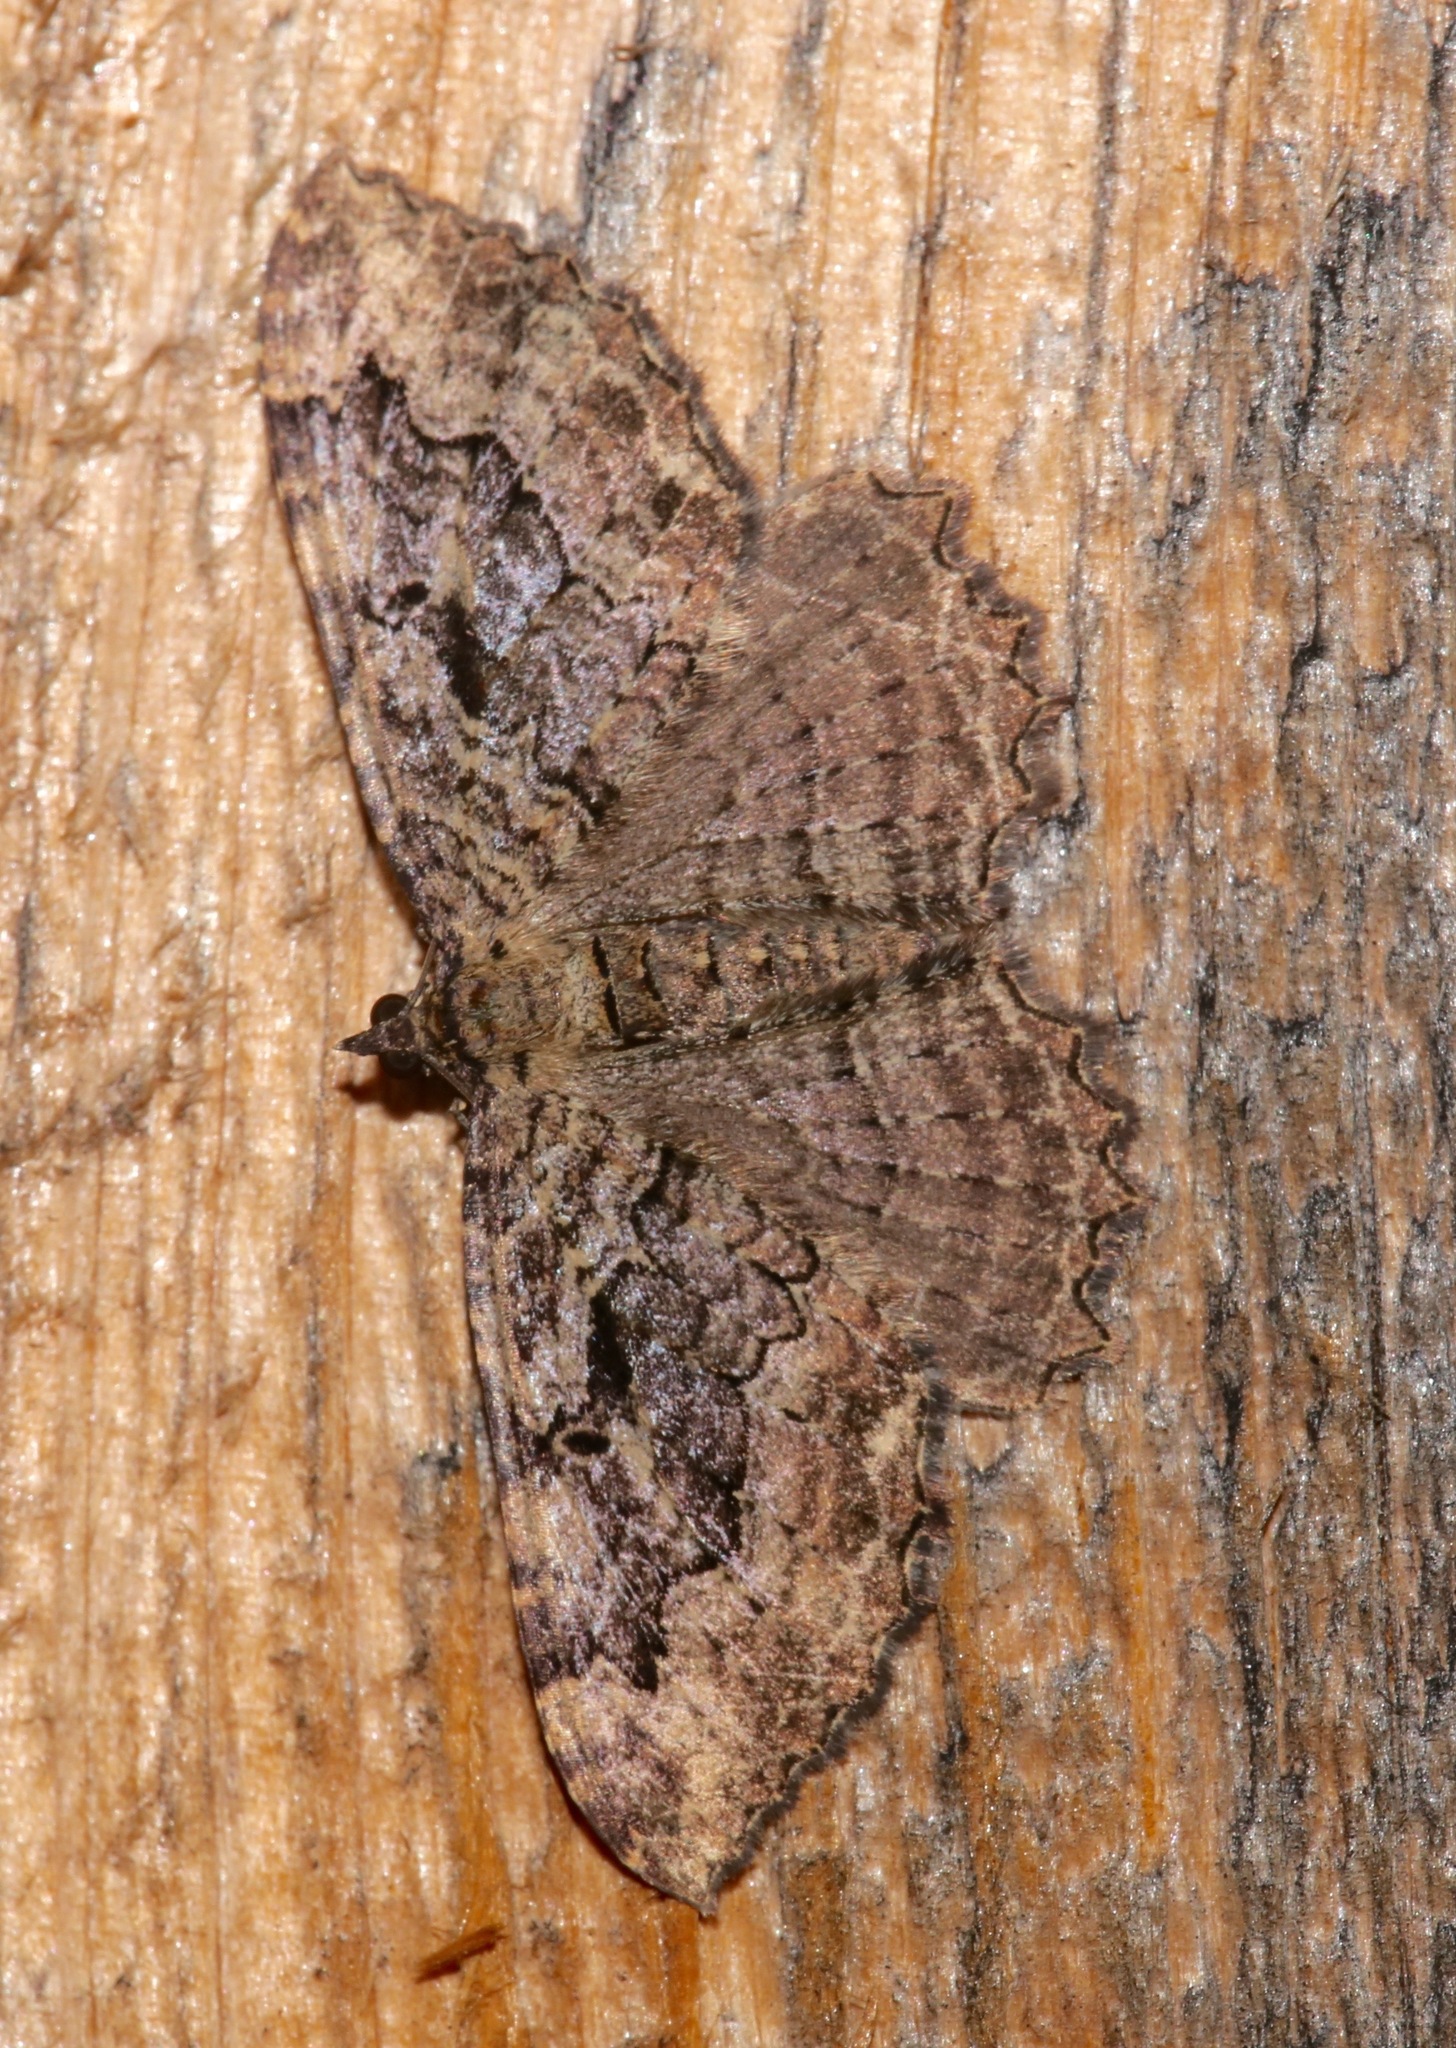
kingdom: Animalia
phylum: Arthropoda
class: Insecta
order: Lepidoptera
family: Geometridae
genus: Rheumaptera
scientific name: Rheumaptera
